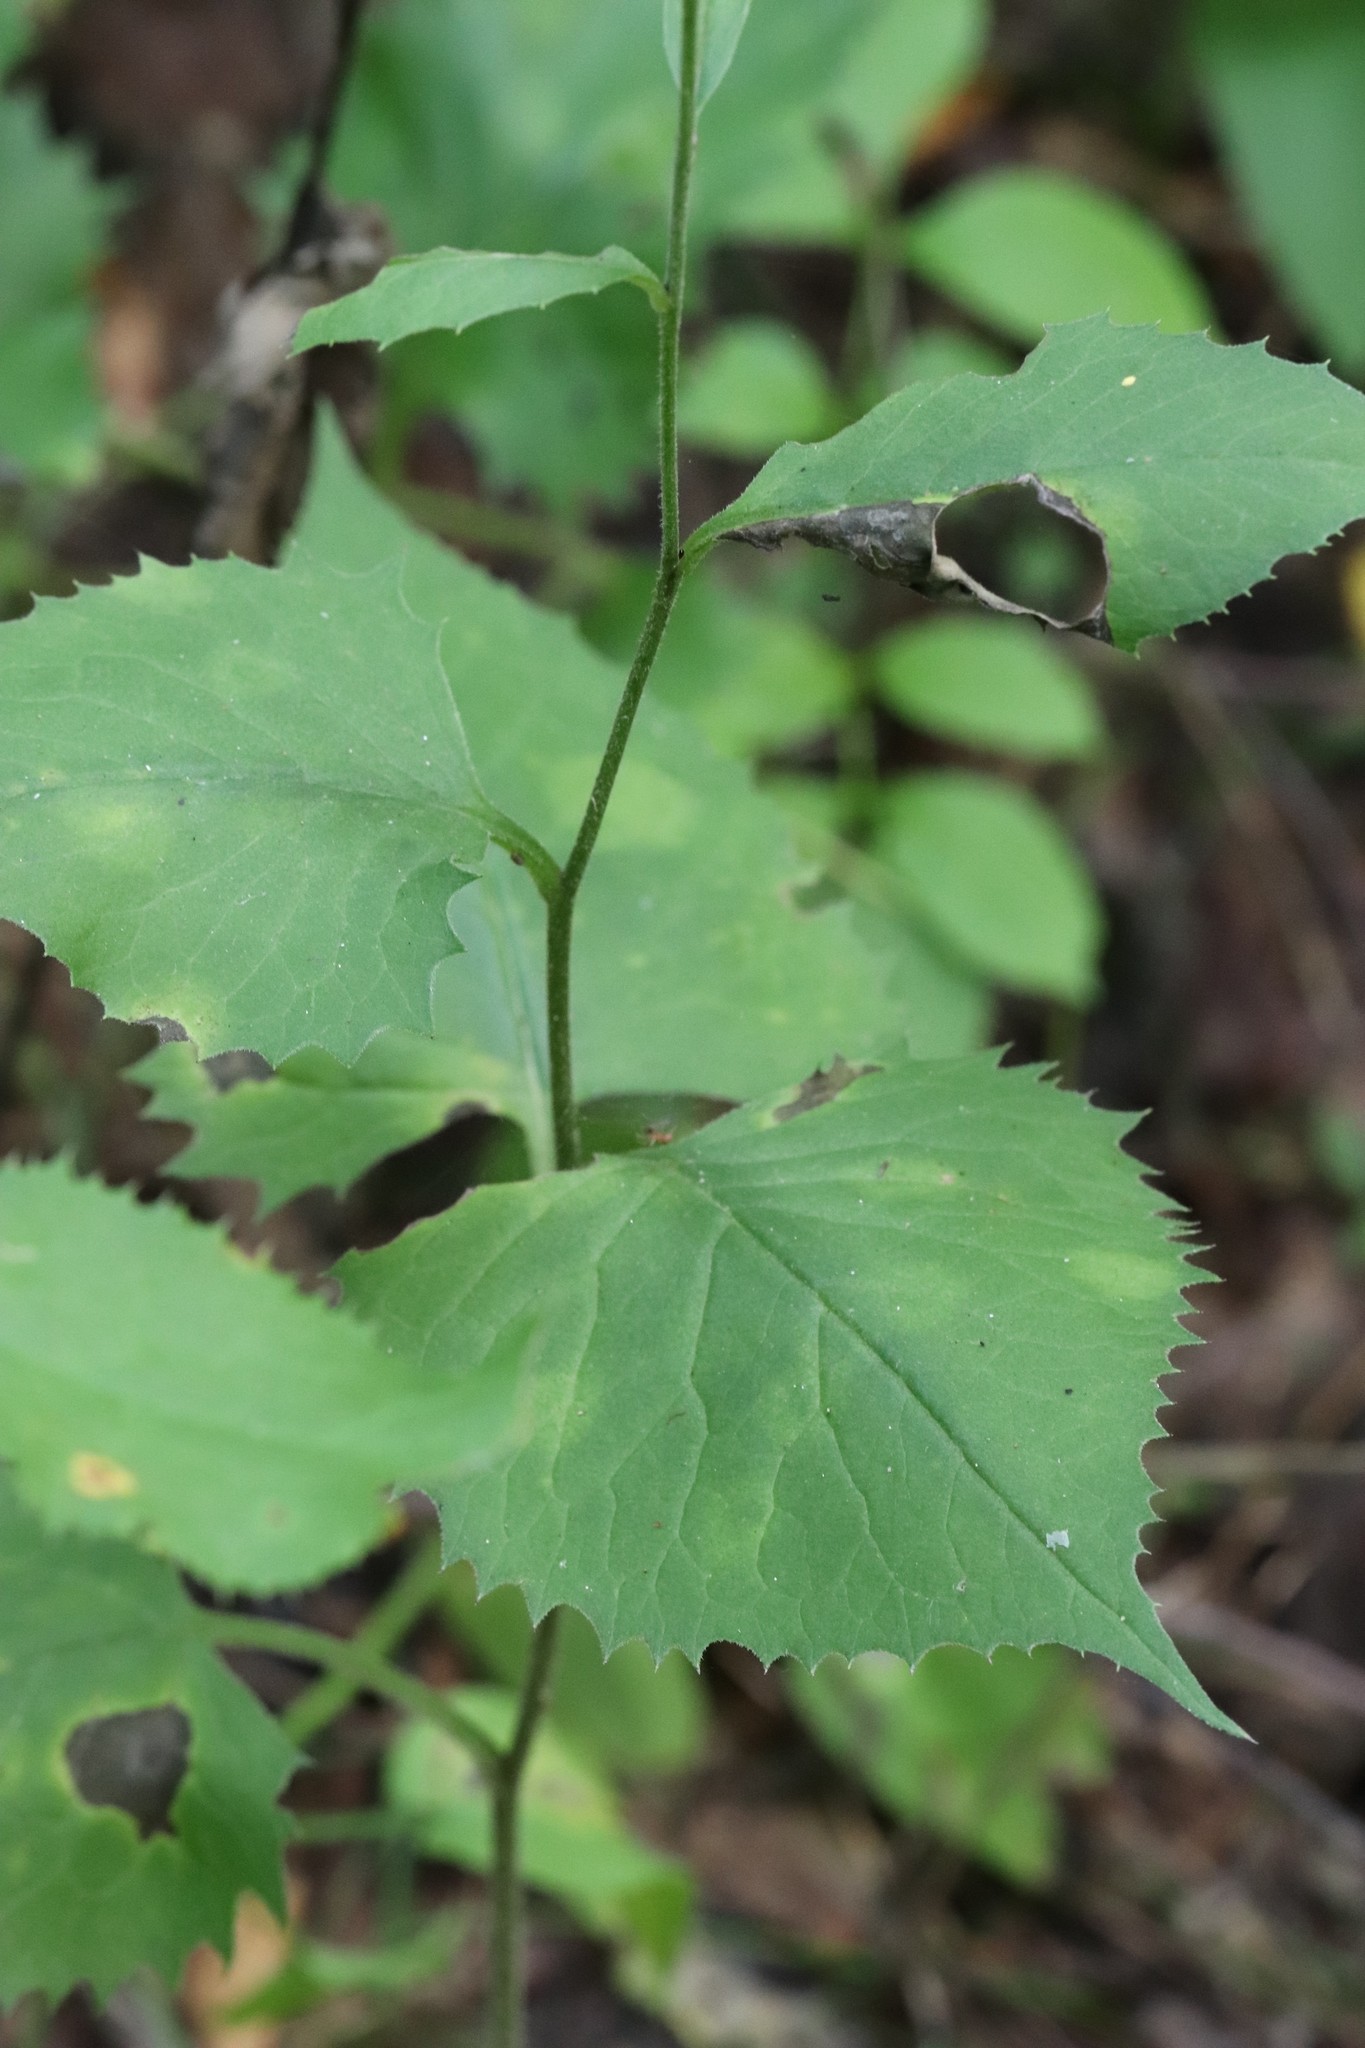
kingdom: Plantae
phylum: Tracheophyta
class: Magnoliopsida
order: Asterales
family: Asteraceae
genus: Saussurea
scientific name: Saussurea grandifolia
